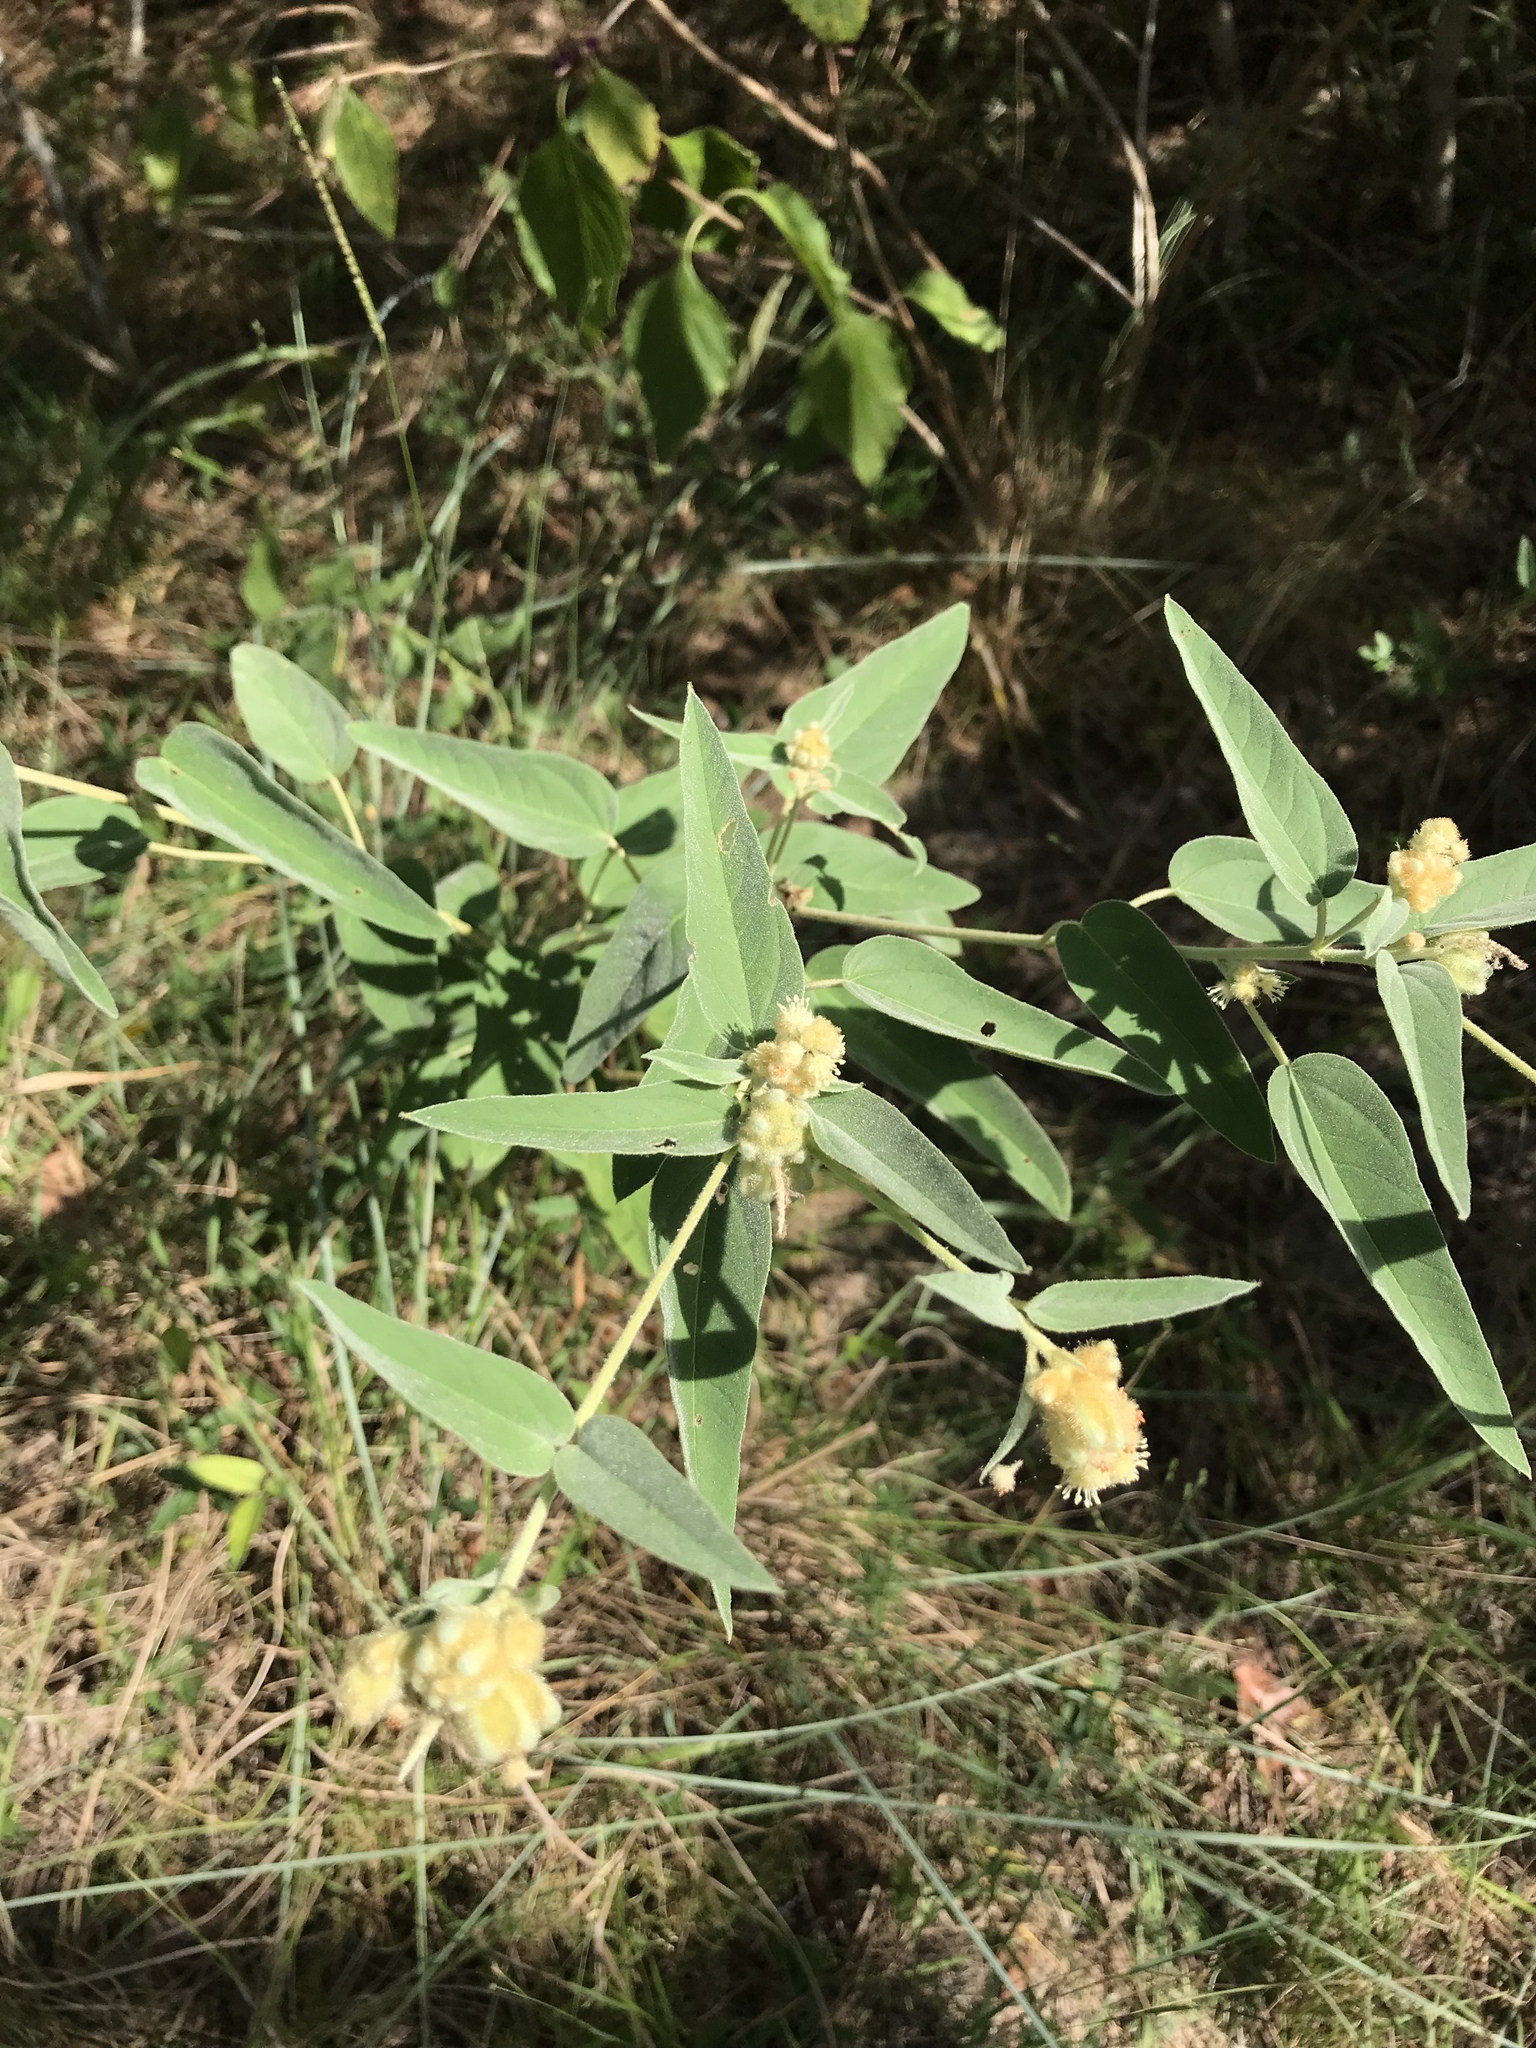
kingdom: Plantae
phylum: Tracheophyta
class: Magnoliopsida
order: Malpighiales
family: Euphorbiaceae
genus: Croton
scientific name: Croton lindheimeri
